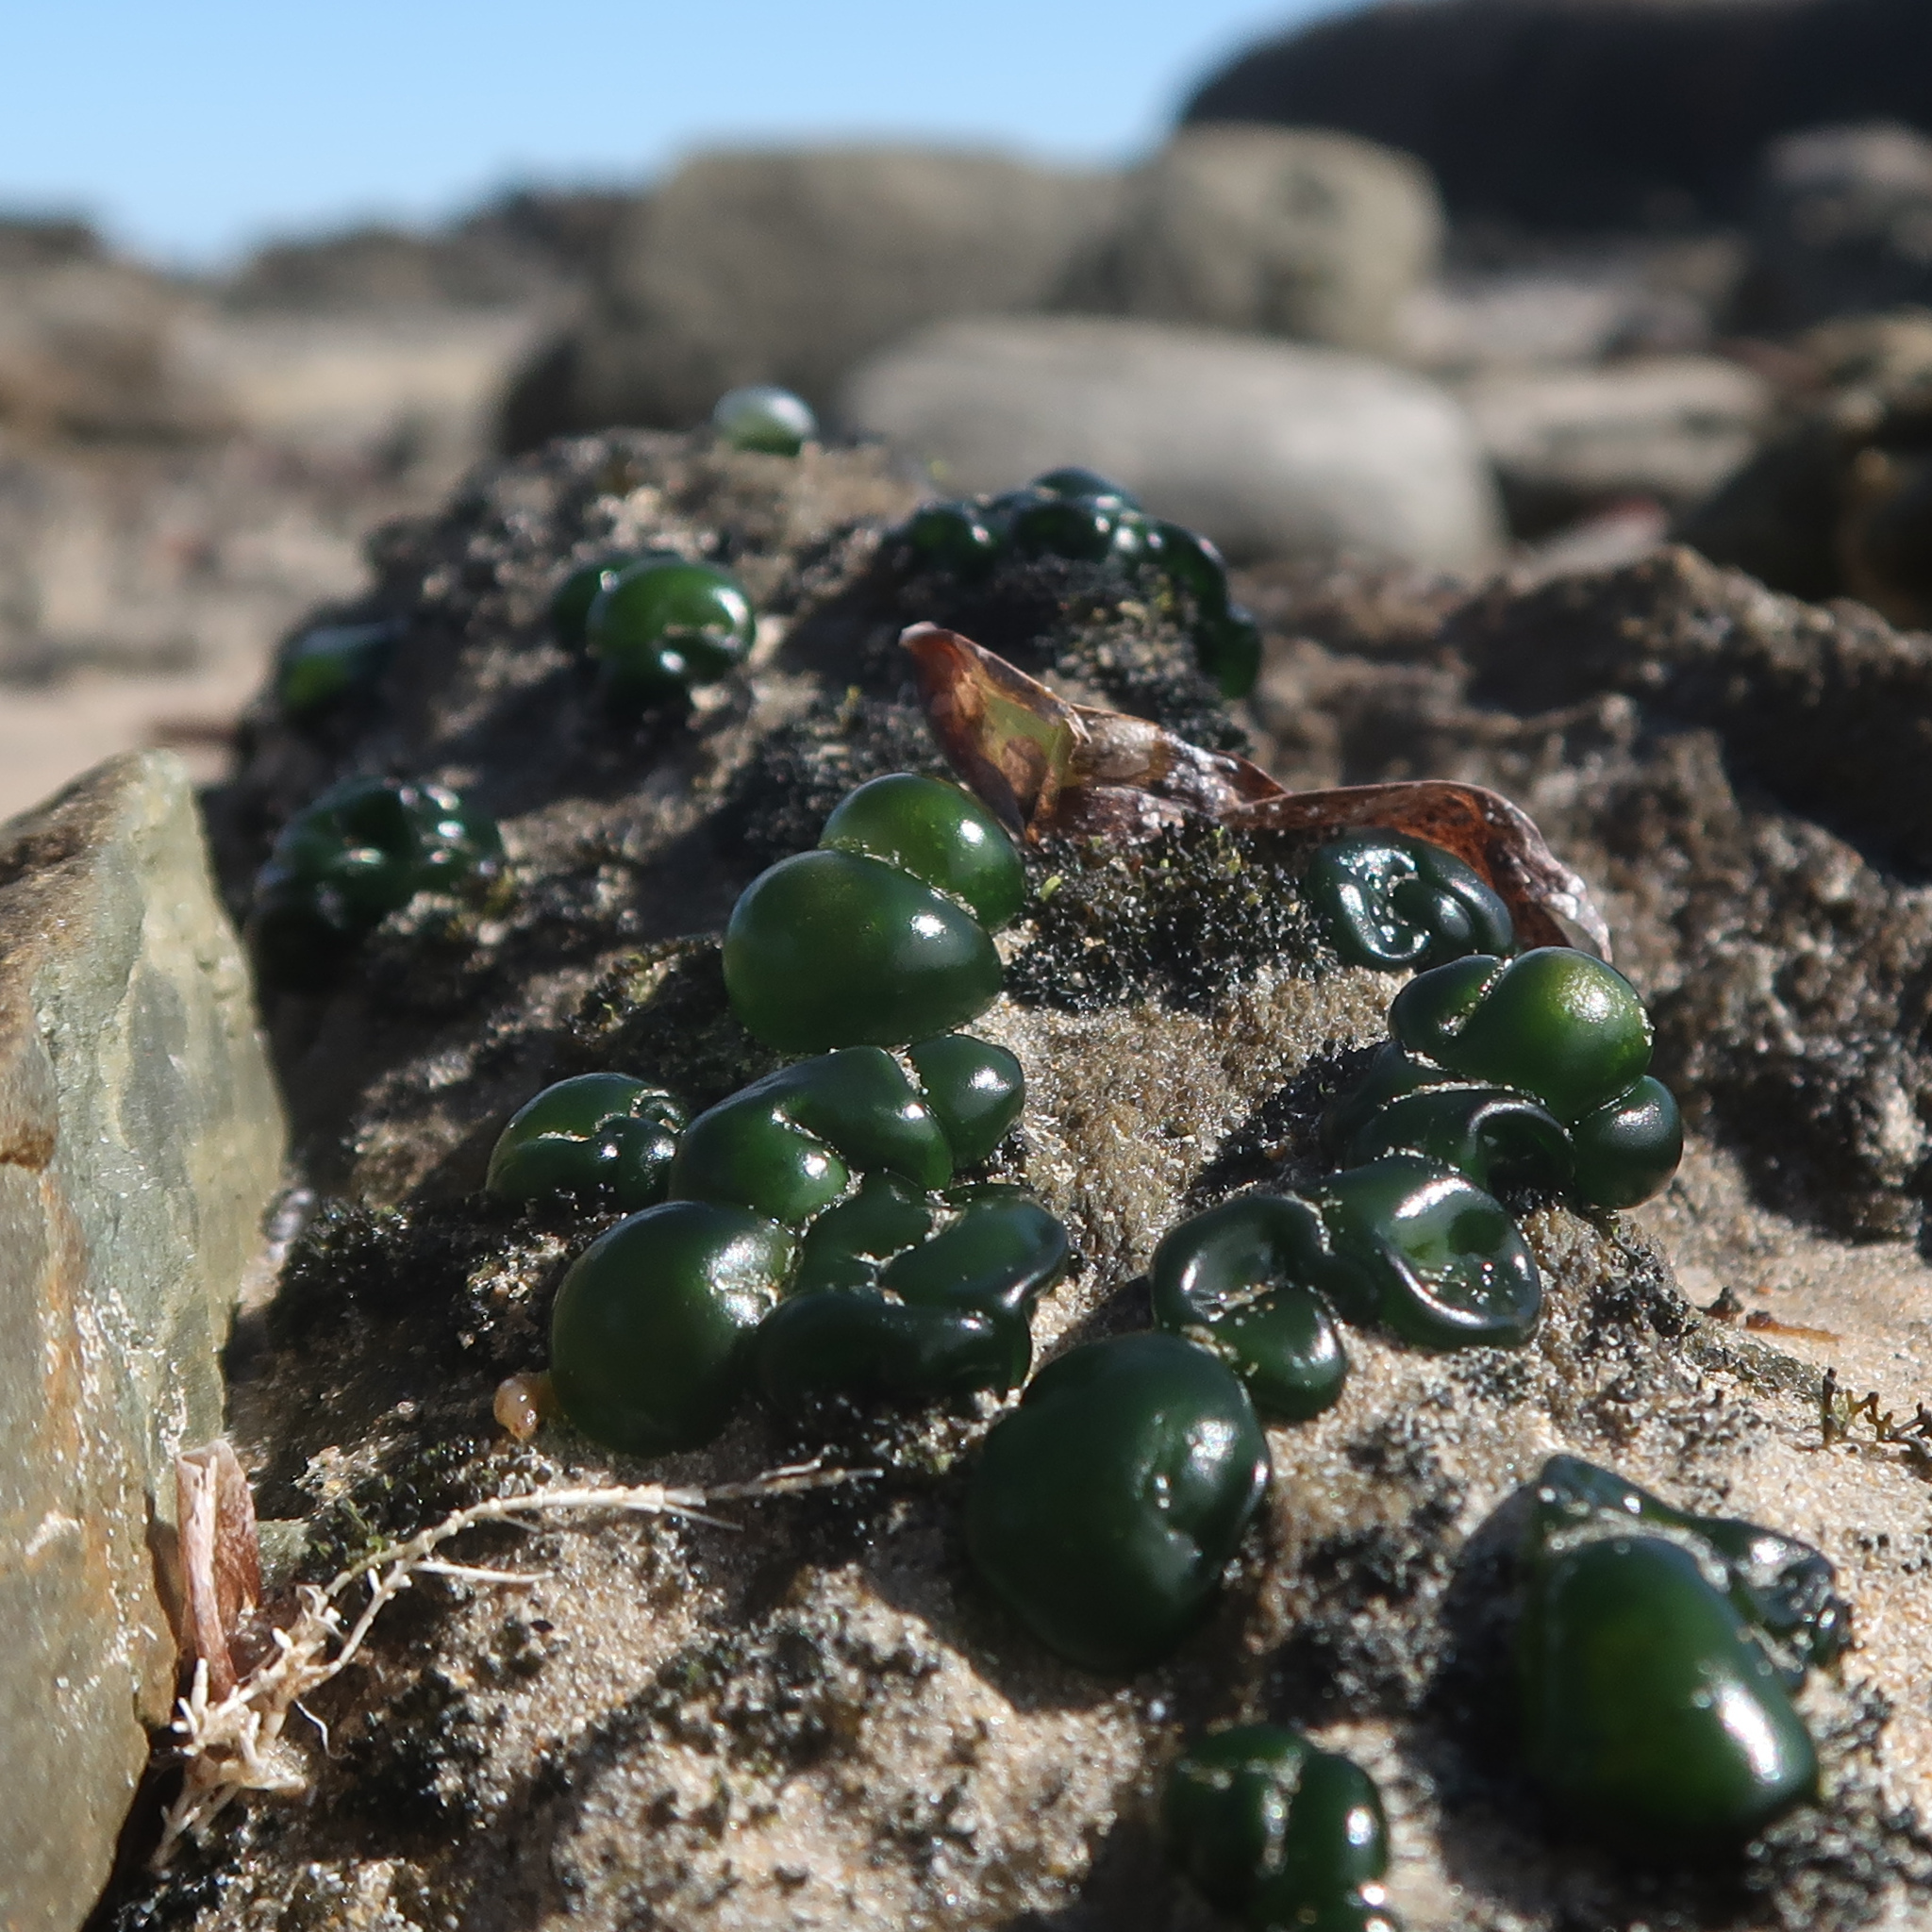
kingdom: Bacteria
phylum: Cyanobacteria
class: Cyanobacteriia
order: Cyanobacteriales
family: Rivulariaceae
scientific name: Rivulariaceae
